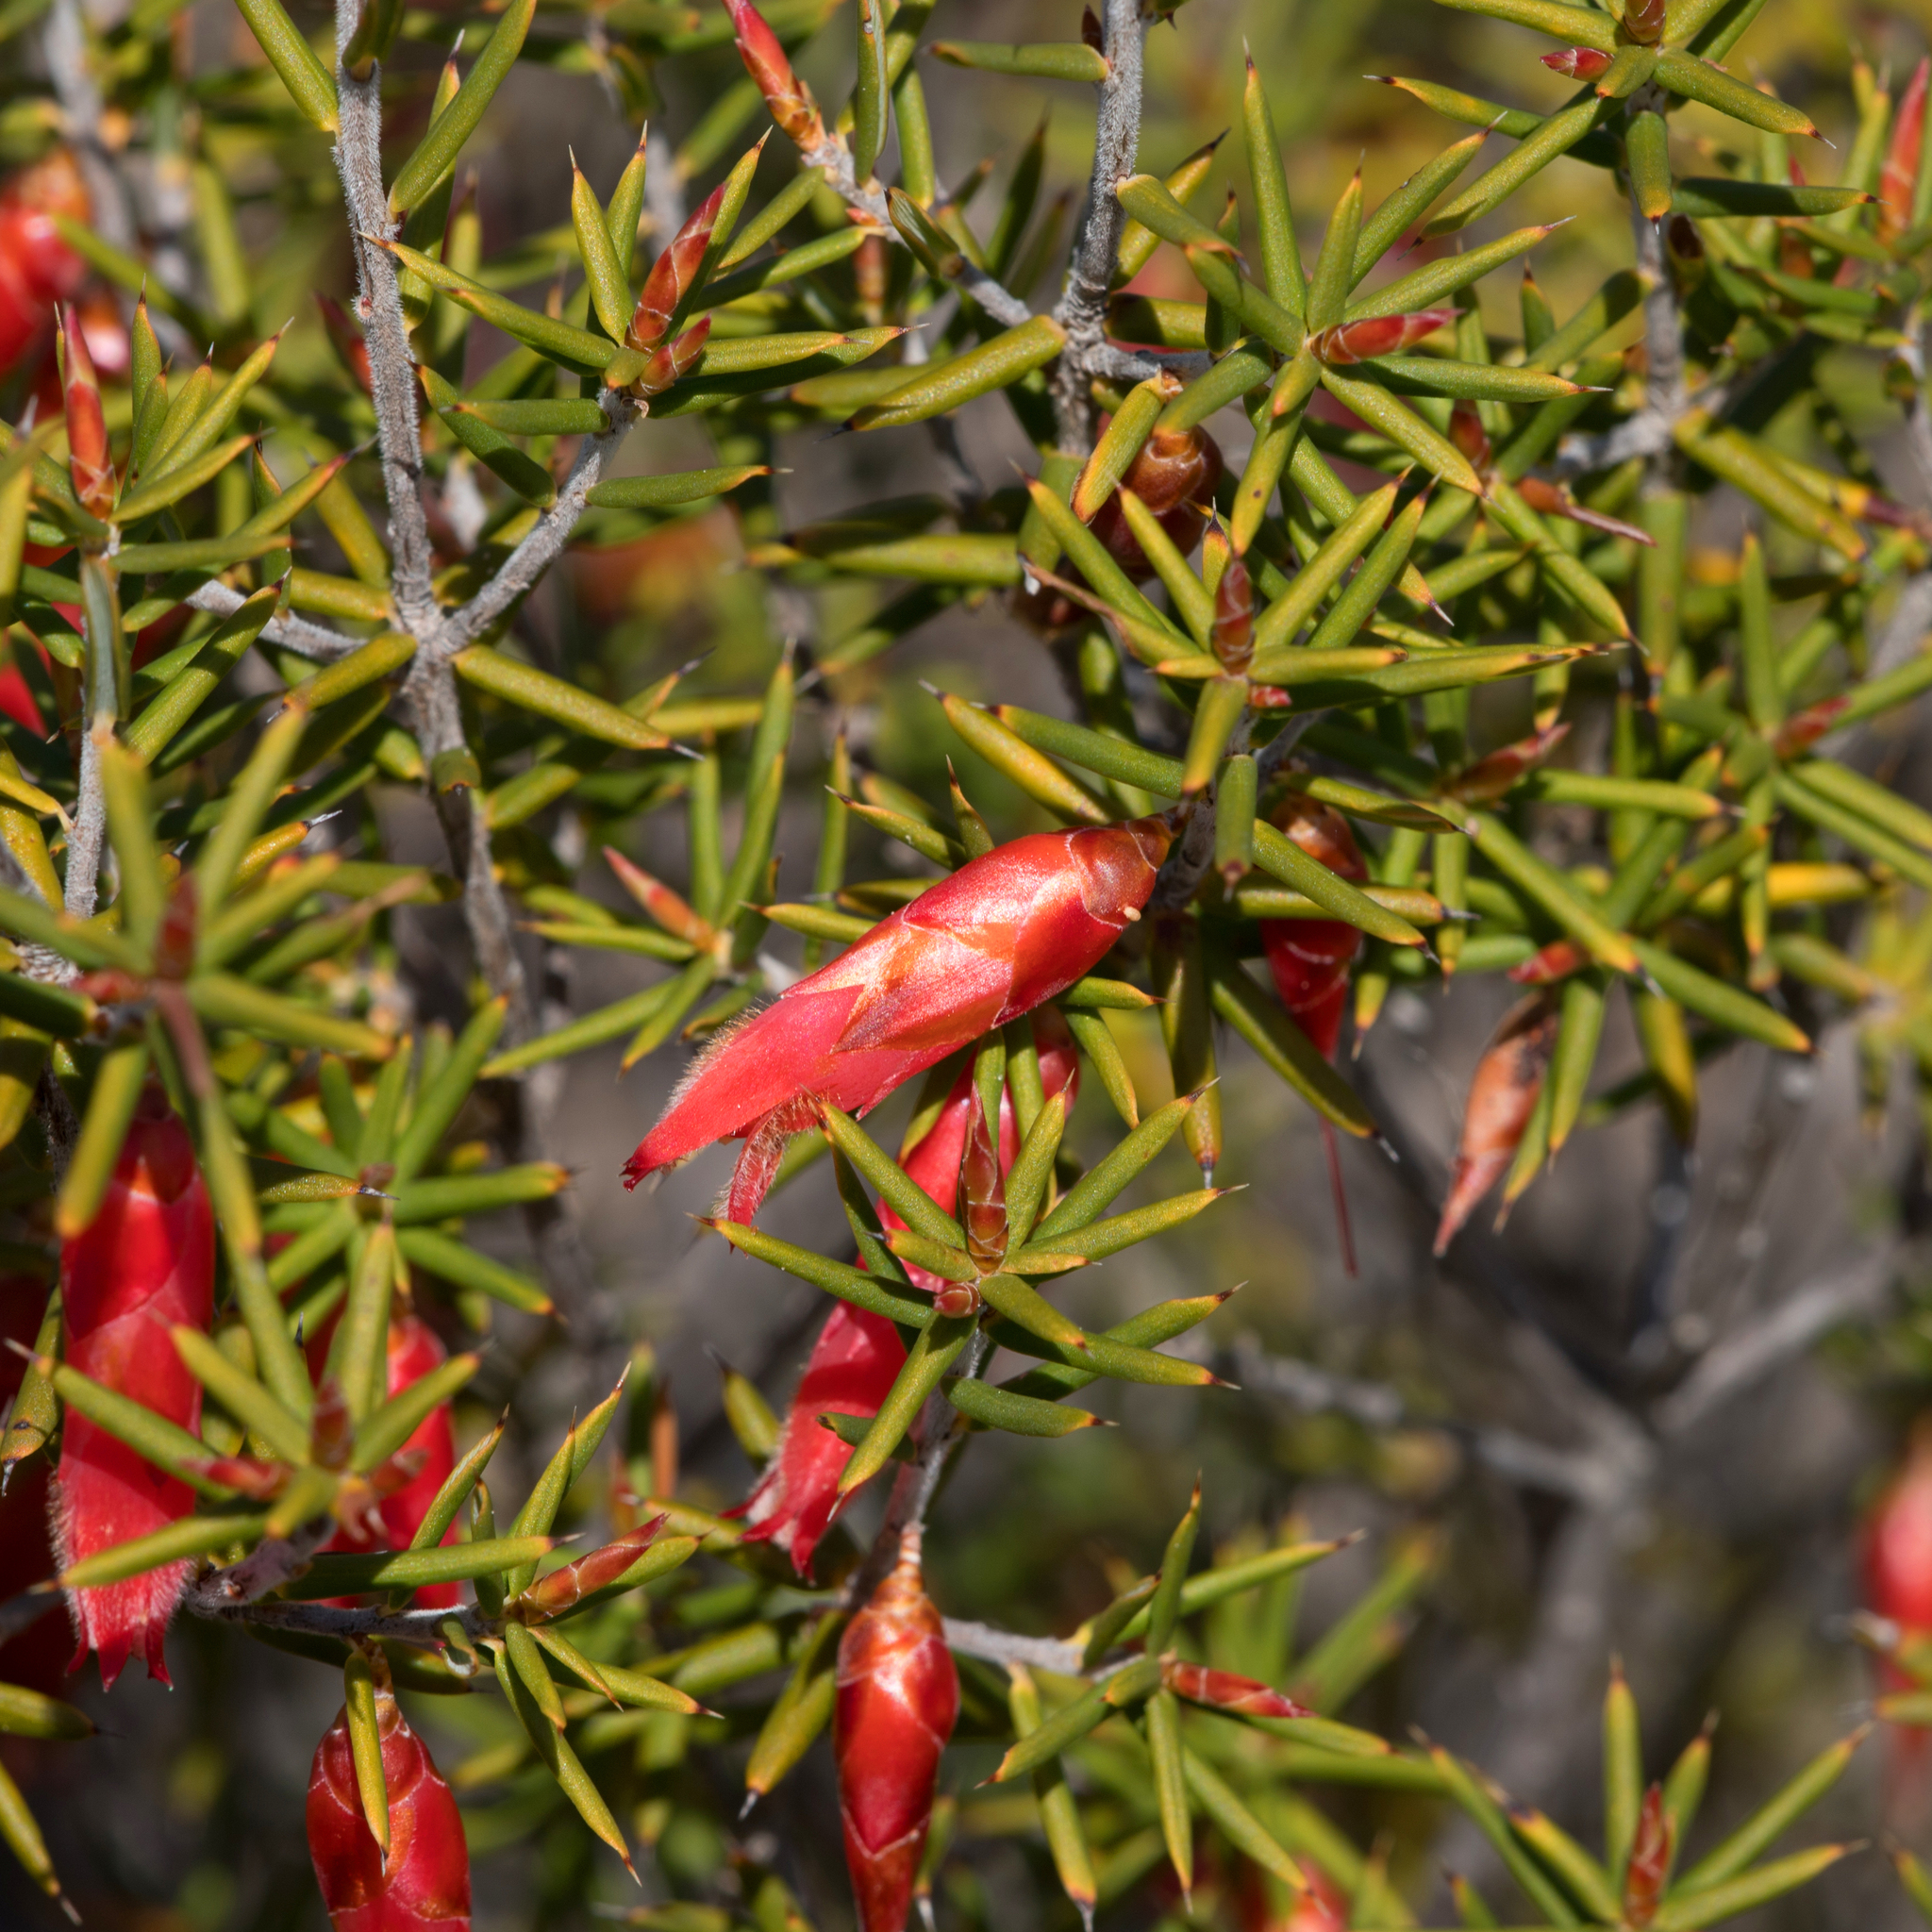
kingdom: Plantae
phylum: Tracheophyta
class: Magnoliopsida
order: Ericales
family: Ericaceae
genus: Stenanthera
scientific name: Stenanthera conostephioides
